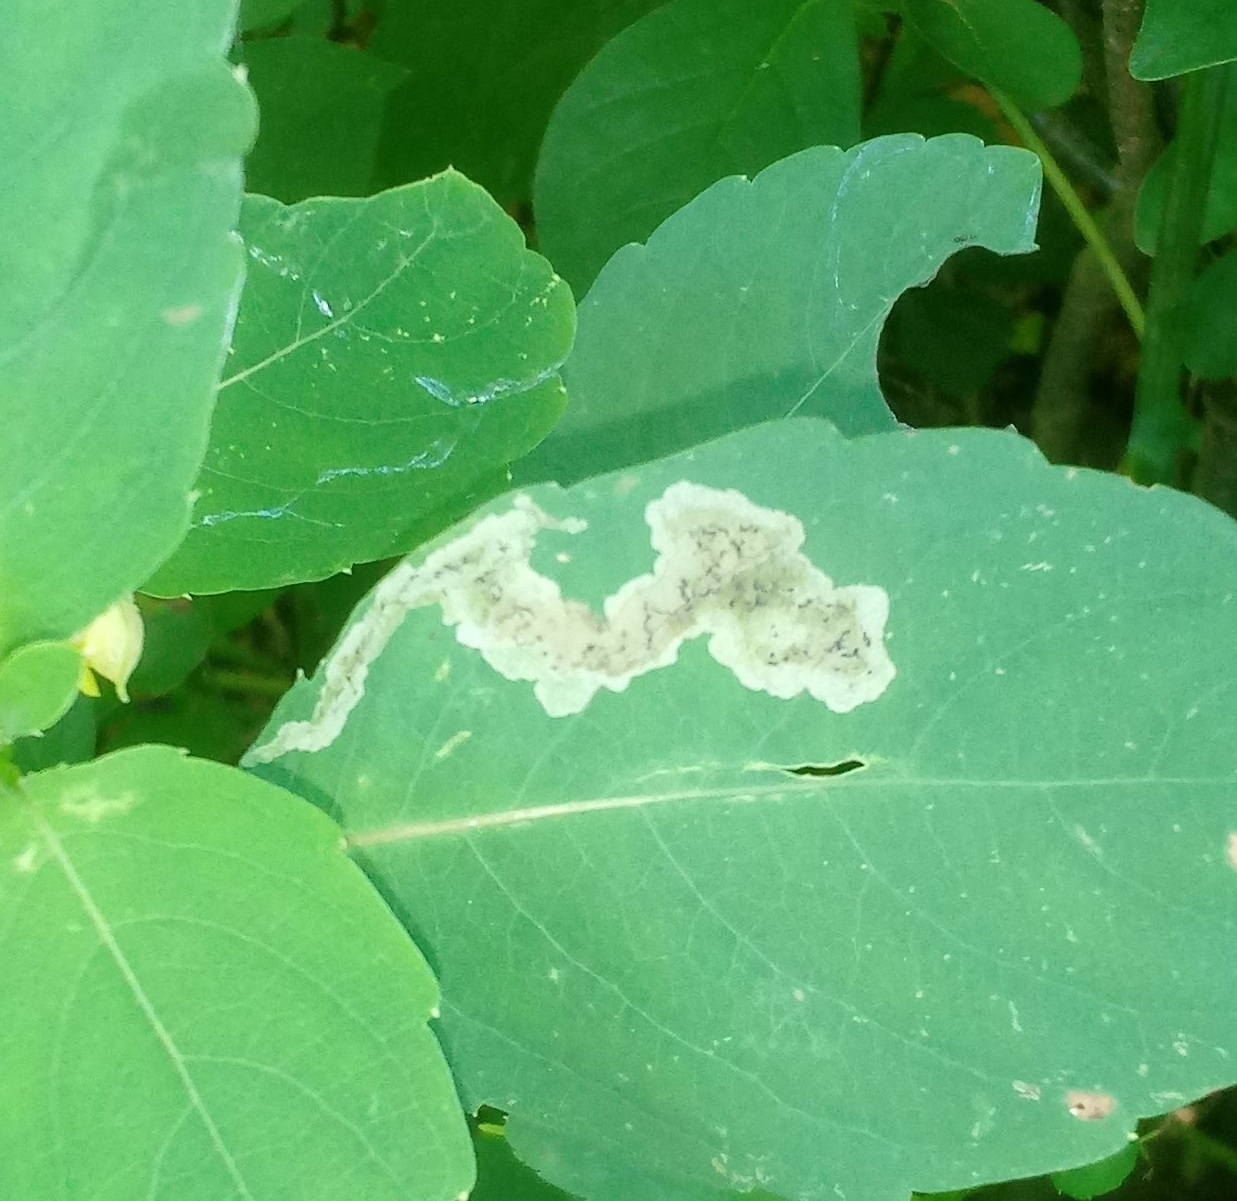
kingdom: Animalia
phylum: Arthropoda
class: Insecta
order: Diptera
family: Agromyzidae
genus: Phytoliriomyza
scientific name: Phytoliriomyza melampyga
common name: Jewelweed leaf-miner fly
